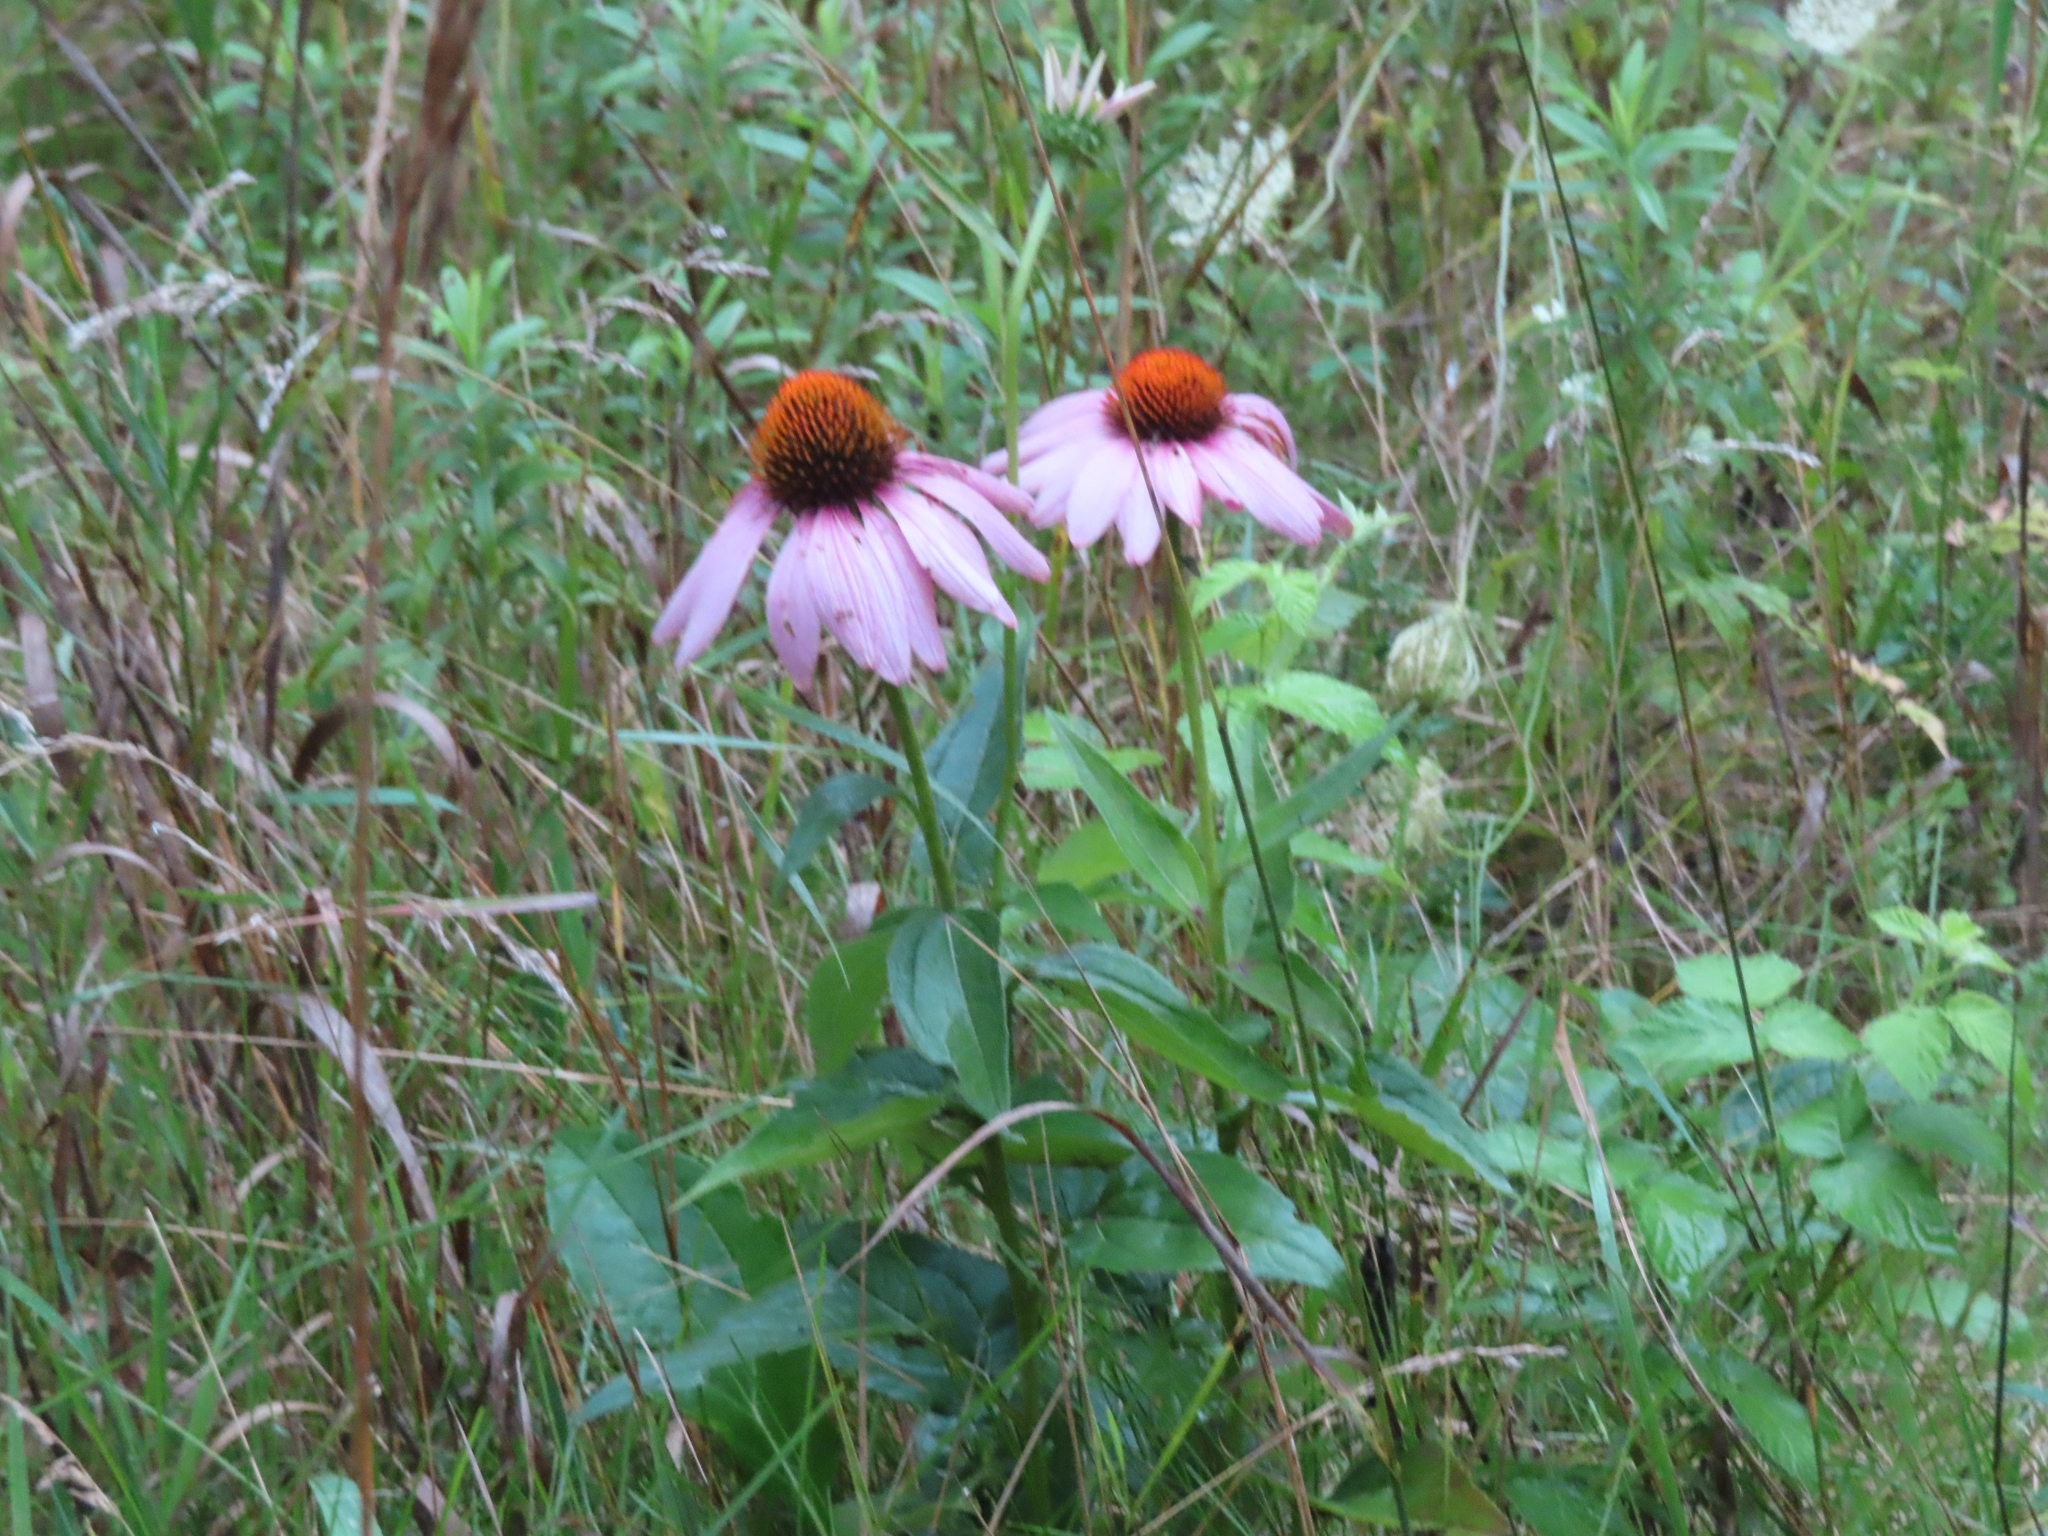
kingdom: Plantae
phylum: Tracheophyta
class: Magnoliopsida
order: Asterales
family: Asteraceae
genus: Echinacea
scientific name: Echinacea purpurea
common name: Broad-leaved purple coneflower
